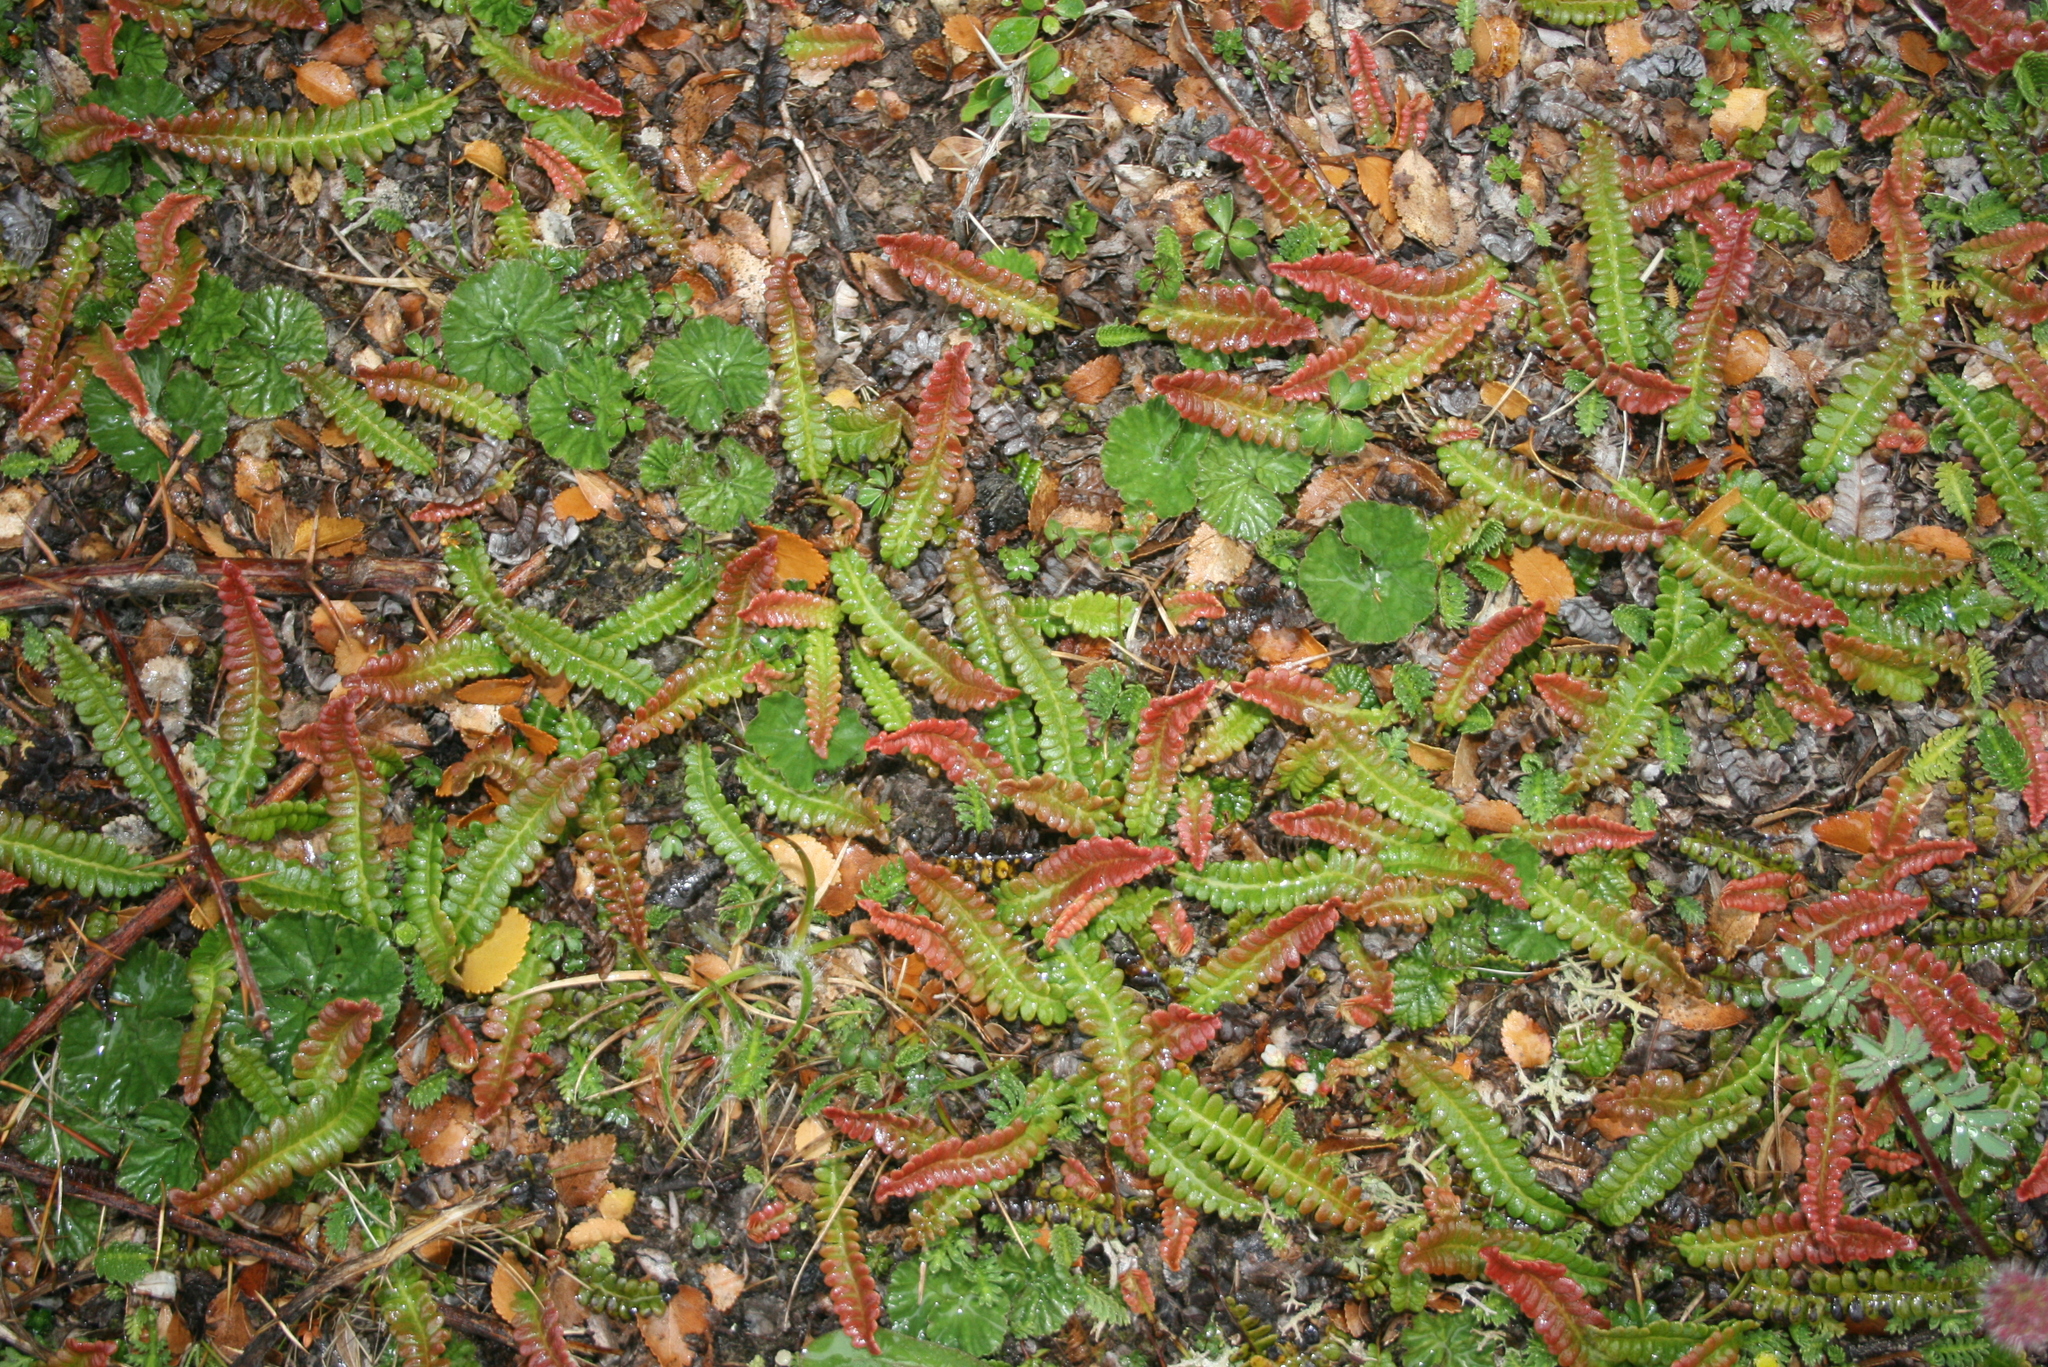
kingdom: Plantae
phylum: Tracheophyta
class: Polypodiopsida
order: Polypodiales
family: Blechnaceae
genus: Austroblechnum
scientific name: Austroblechnum penna-marina
